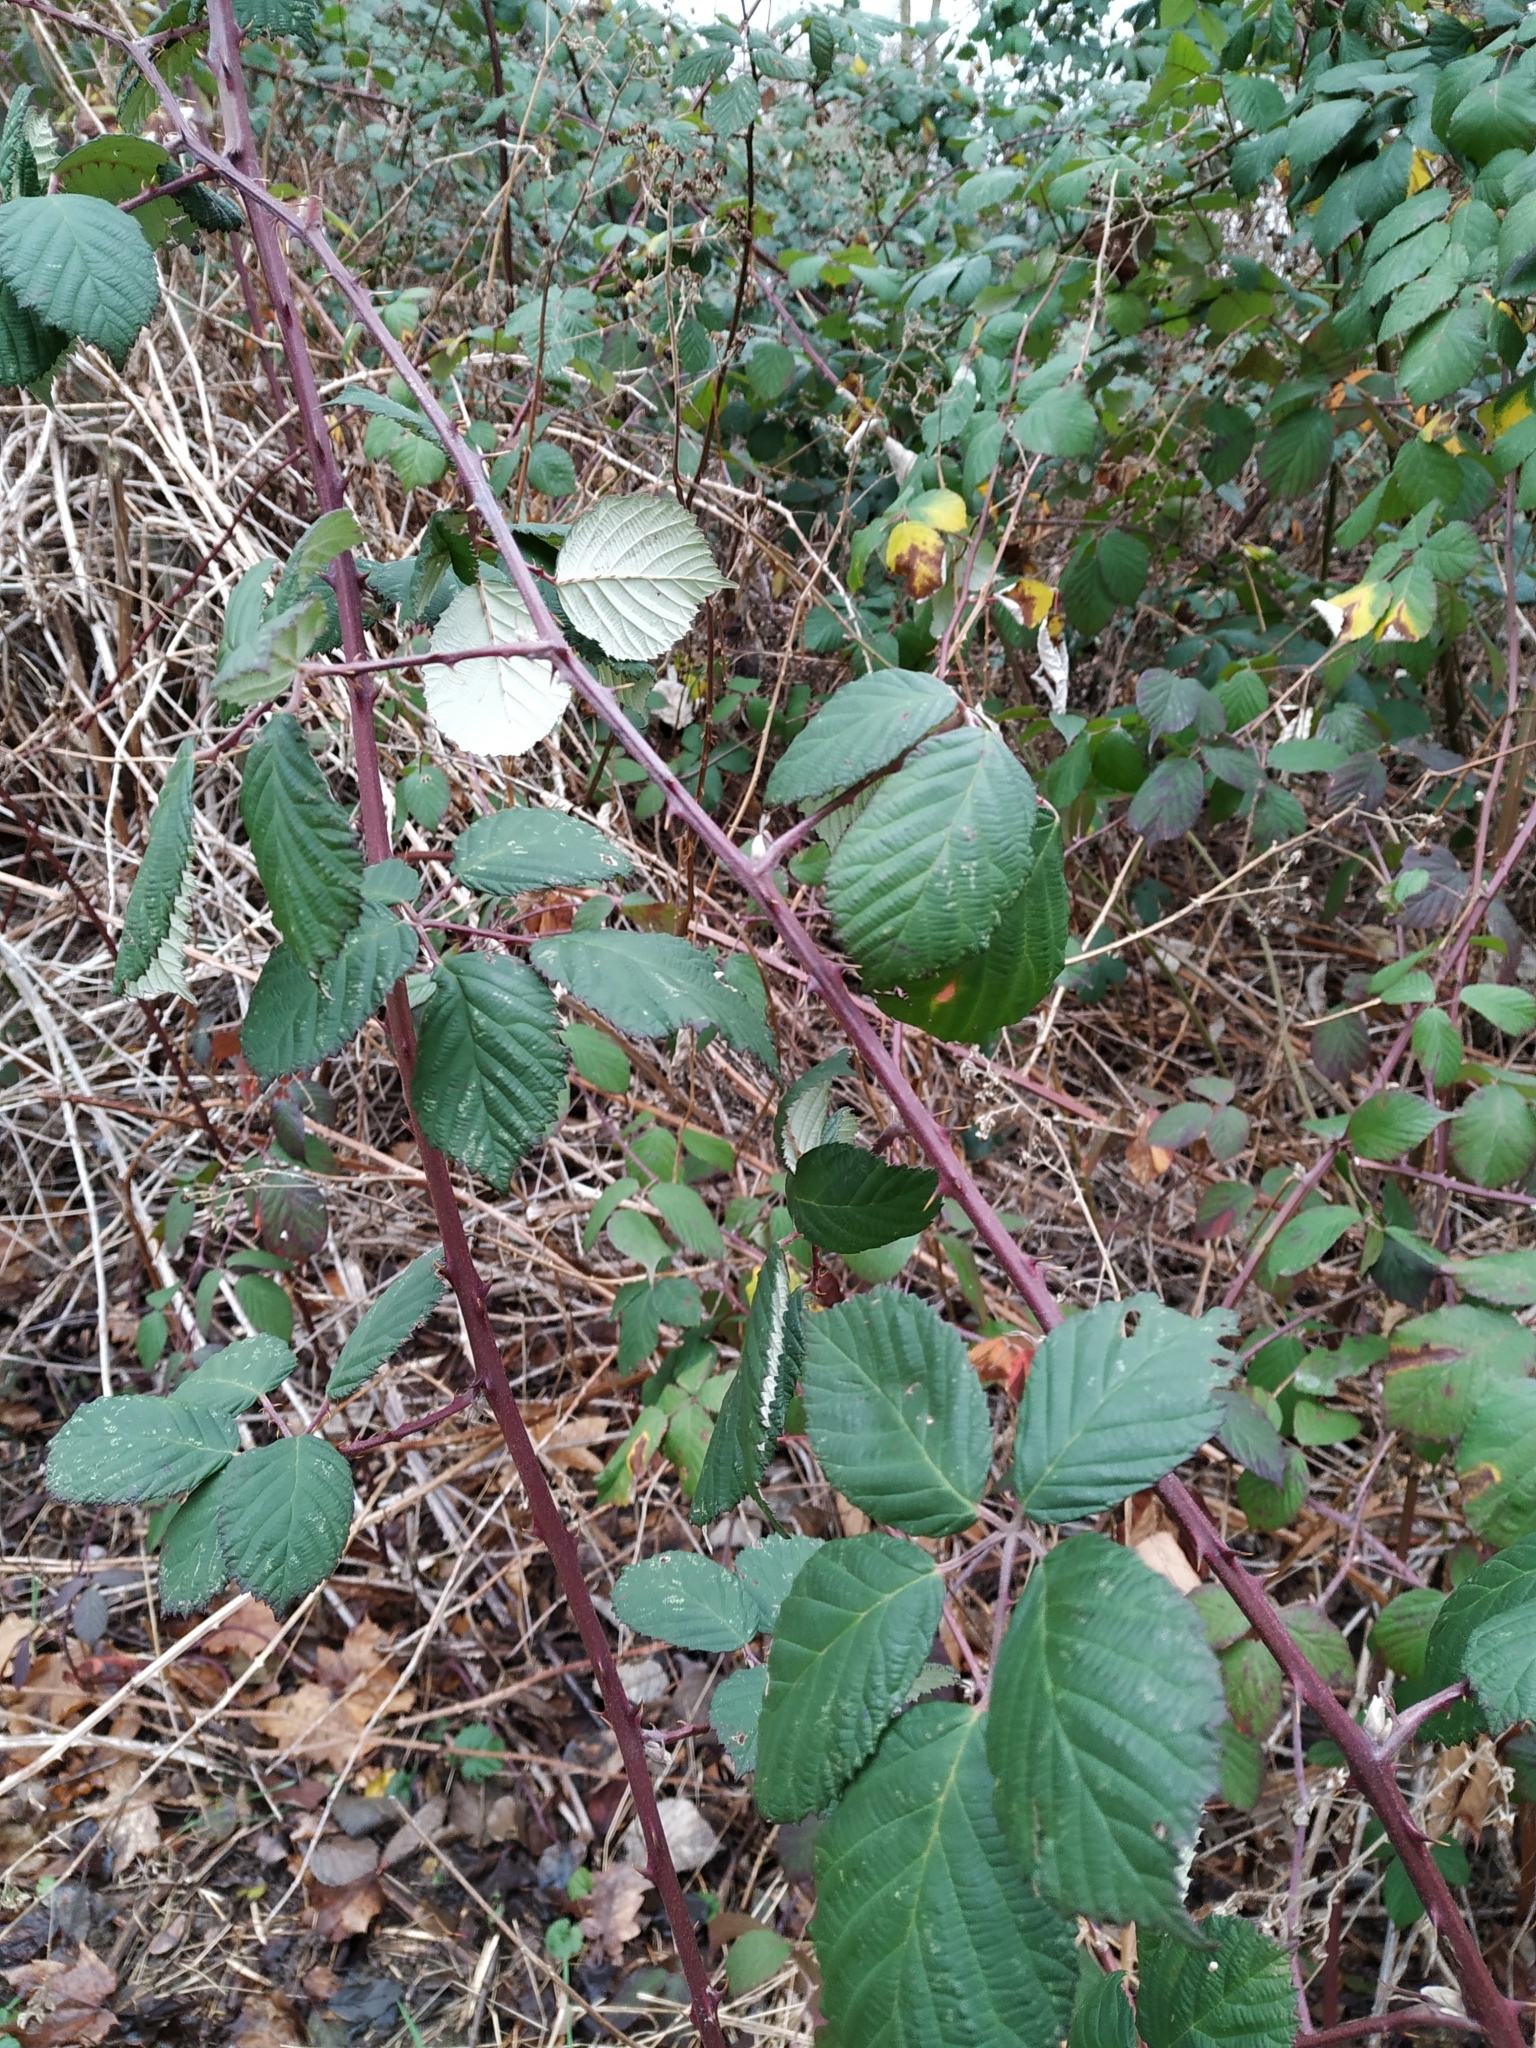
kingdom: Plantae
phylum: Tracheophyta
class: Magnoliopsida
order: Rosales
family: Rosaceae
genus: Rubus
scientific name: Rubus armeniacus
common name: Himalayan blackberry
